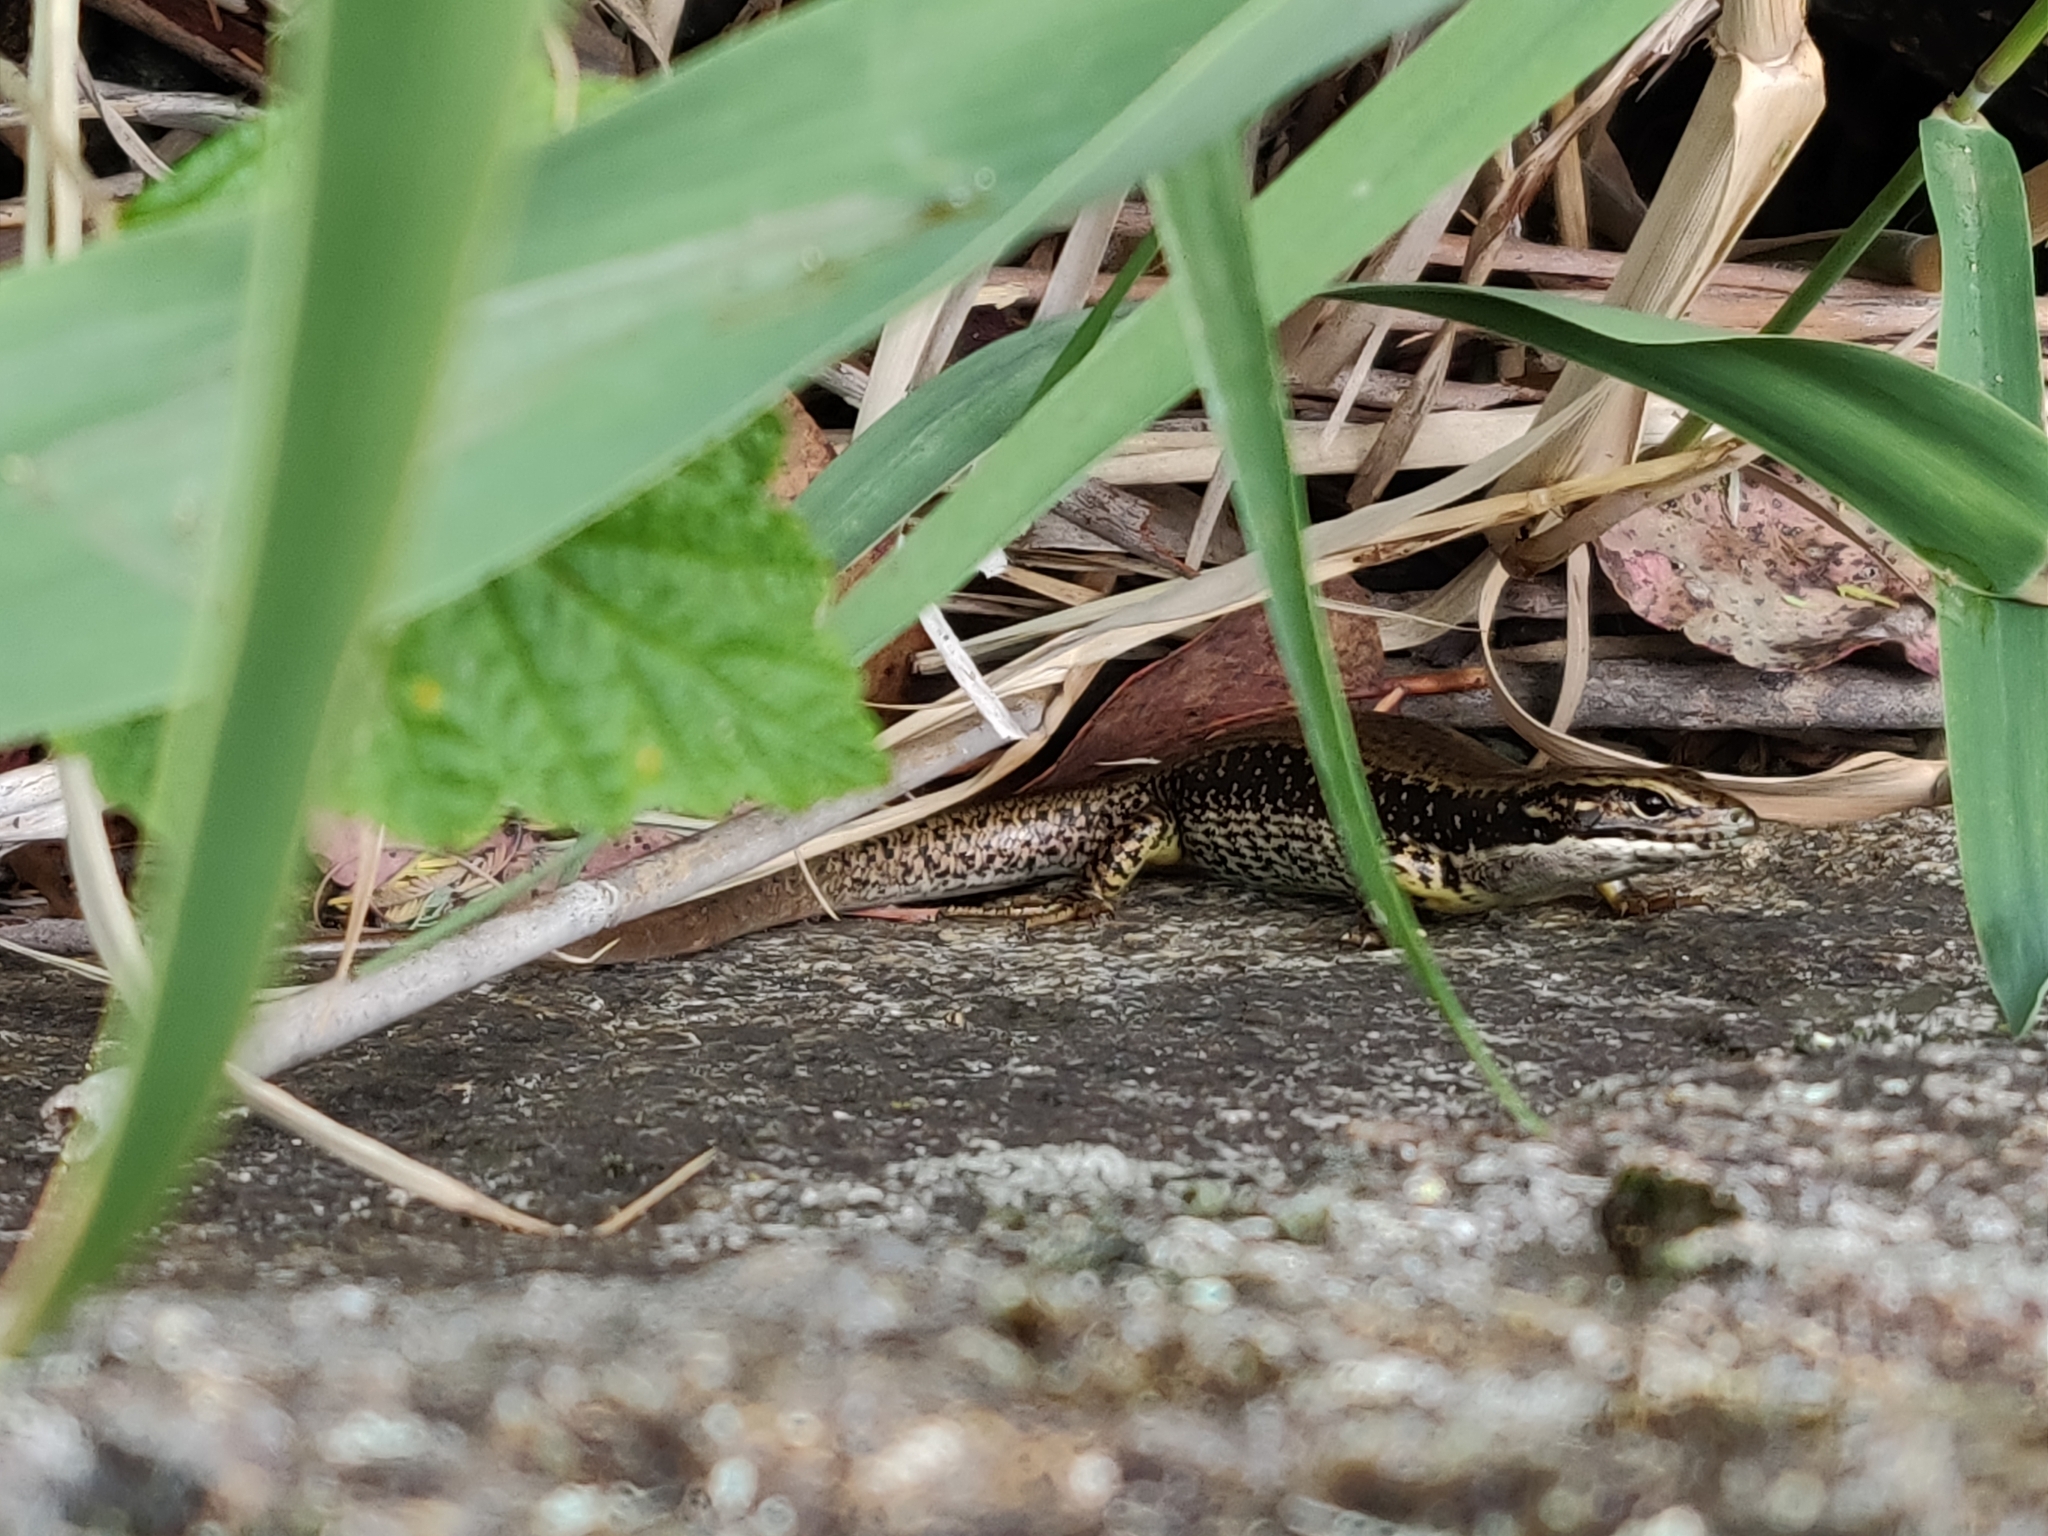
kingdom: Animalia
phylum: Chordata
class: Squamata
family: Scincidae
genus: Eulamprus
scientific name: Eulamprus heatwolei
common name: Warm-temperate water-skink
